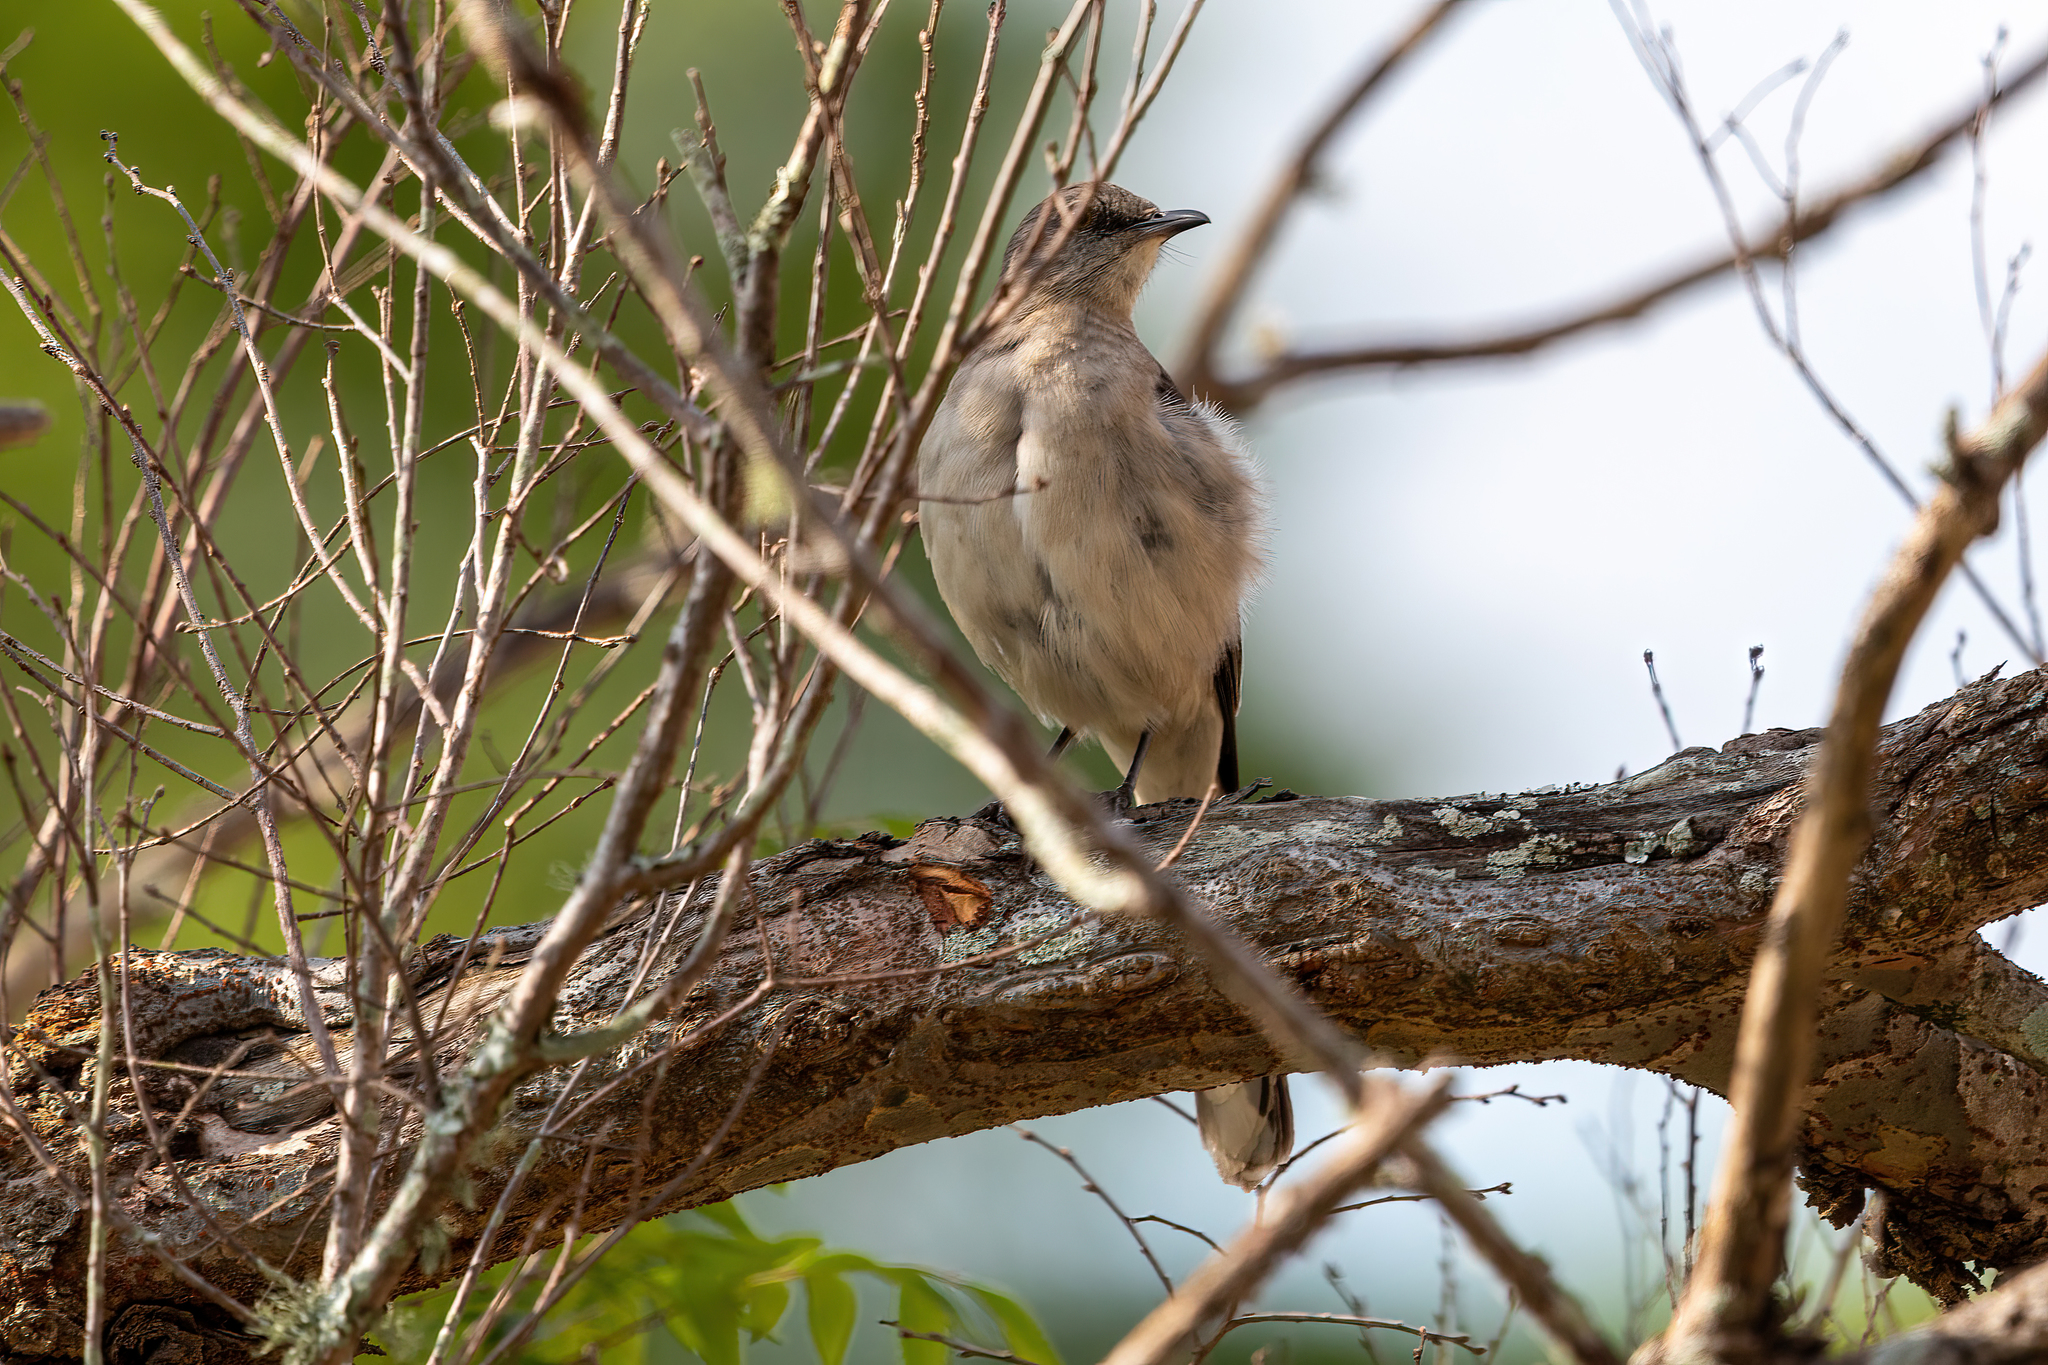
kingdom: Animalia
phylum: Chordata
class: Aves
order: Passeriformes
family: Mimidae
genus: Mimus
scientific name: Mimus polyglottos
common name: Northern mockingbird
